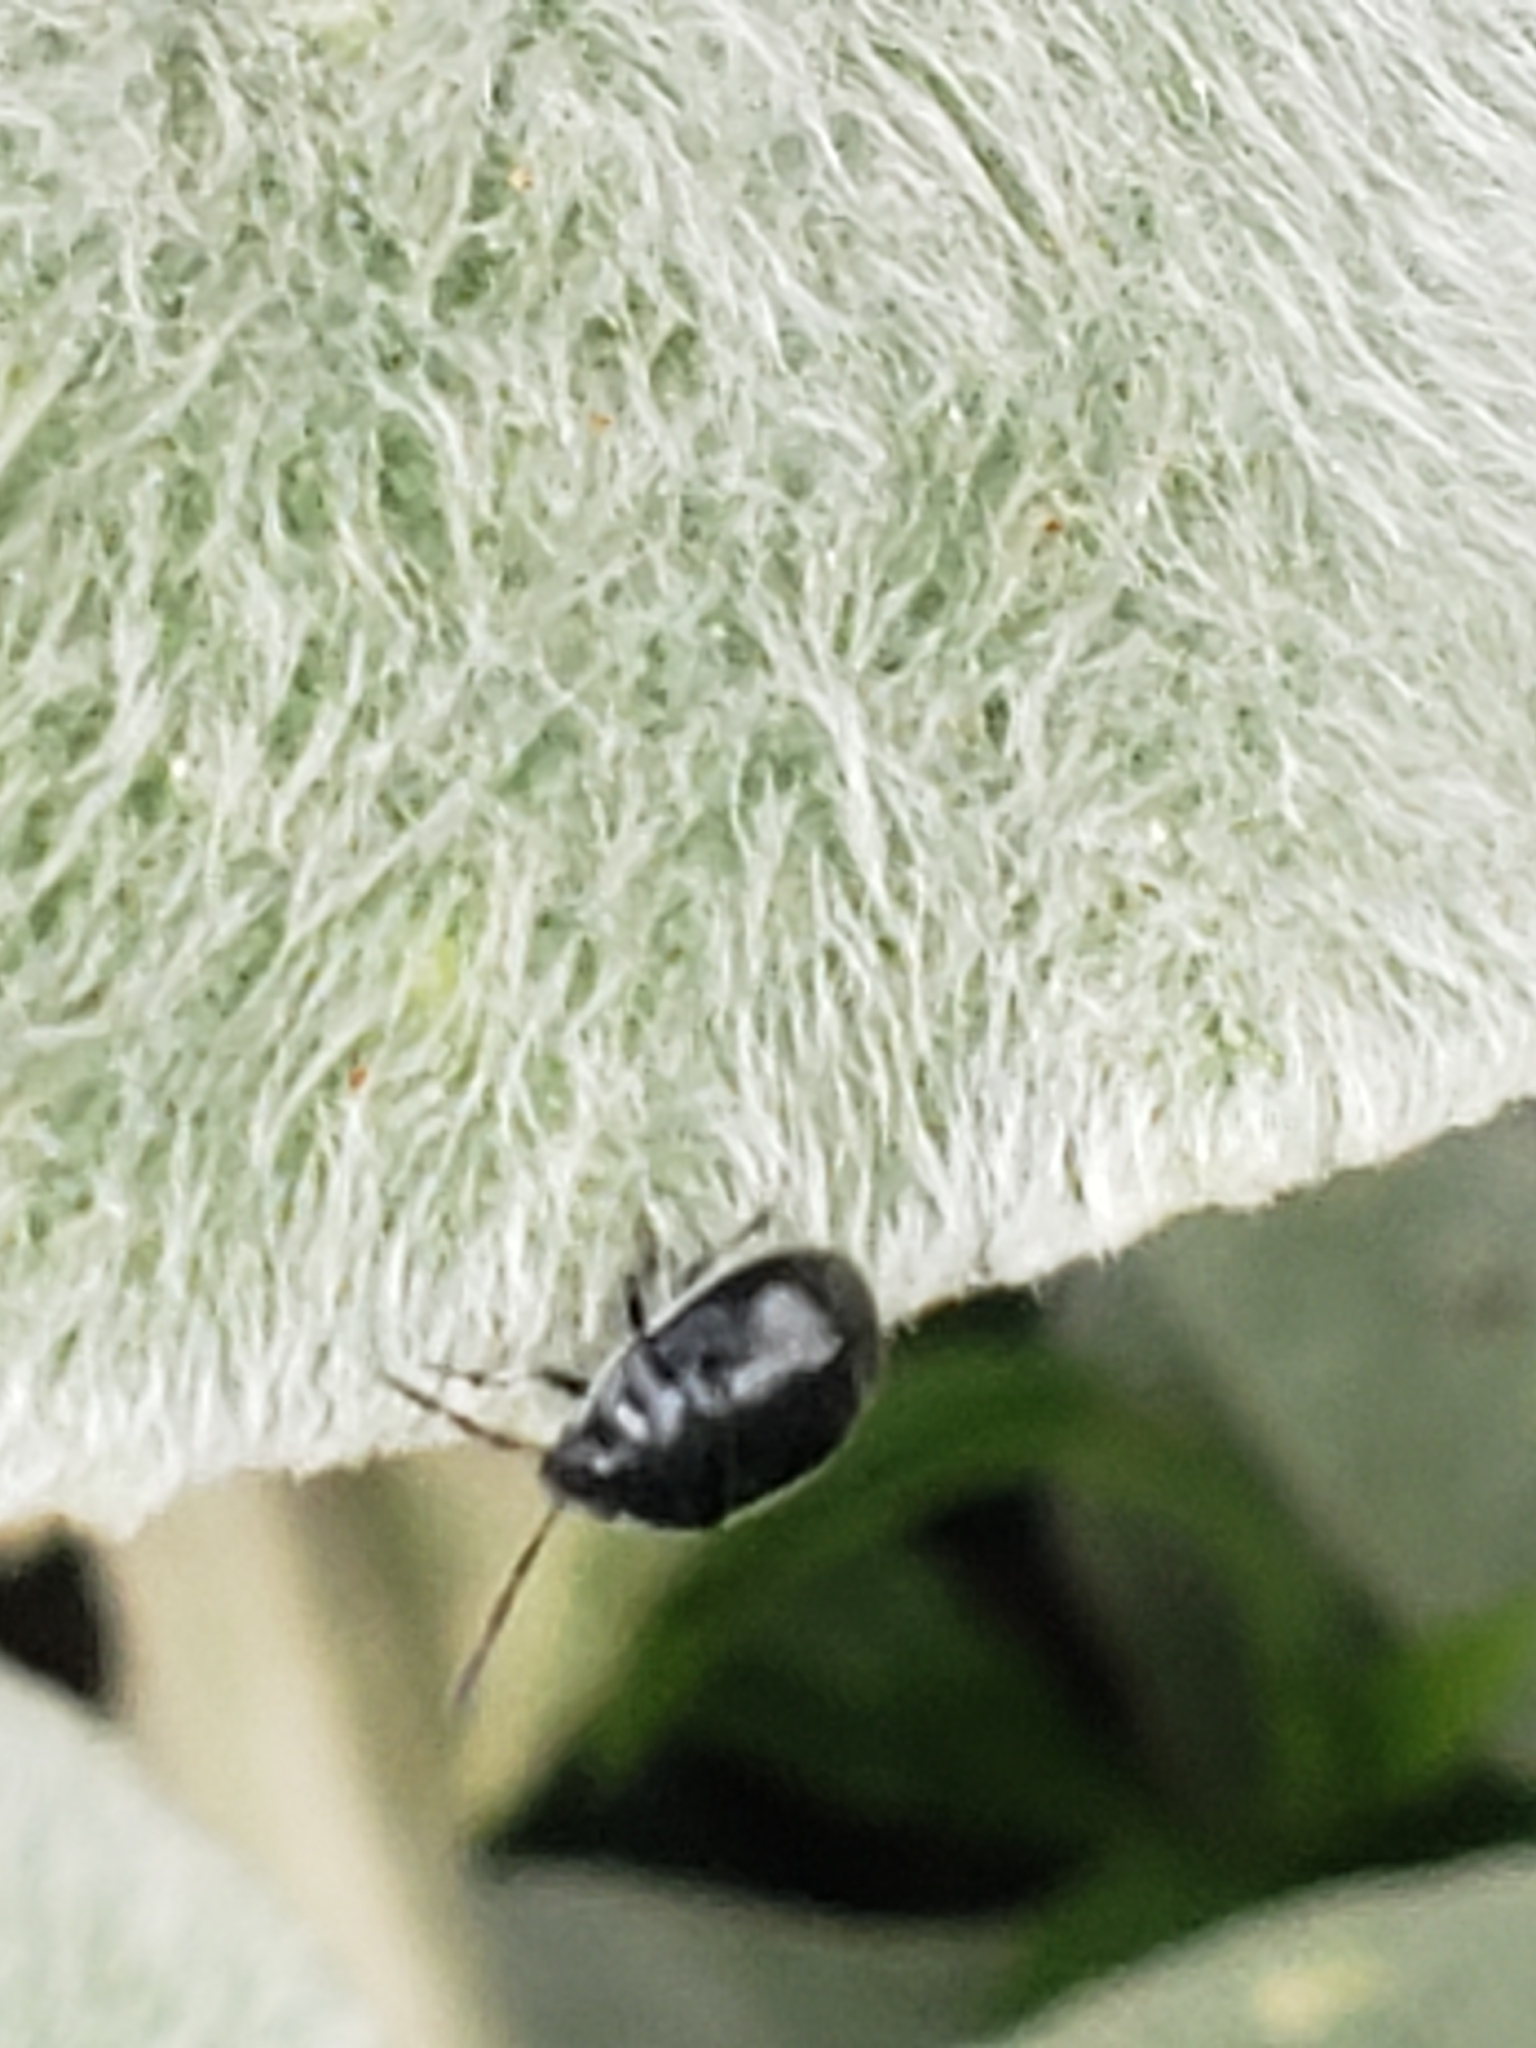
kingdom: Animalia
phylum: Arthropoda
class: Insecta
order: Hemiptera
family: Cydnidae
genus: Sehirus
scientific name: Sehirus cinctus
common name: White-margined burrower bug
